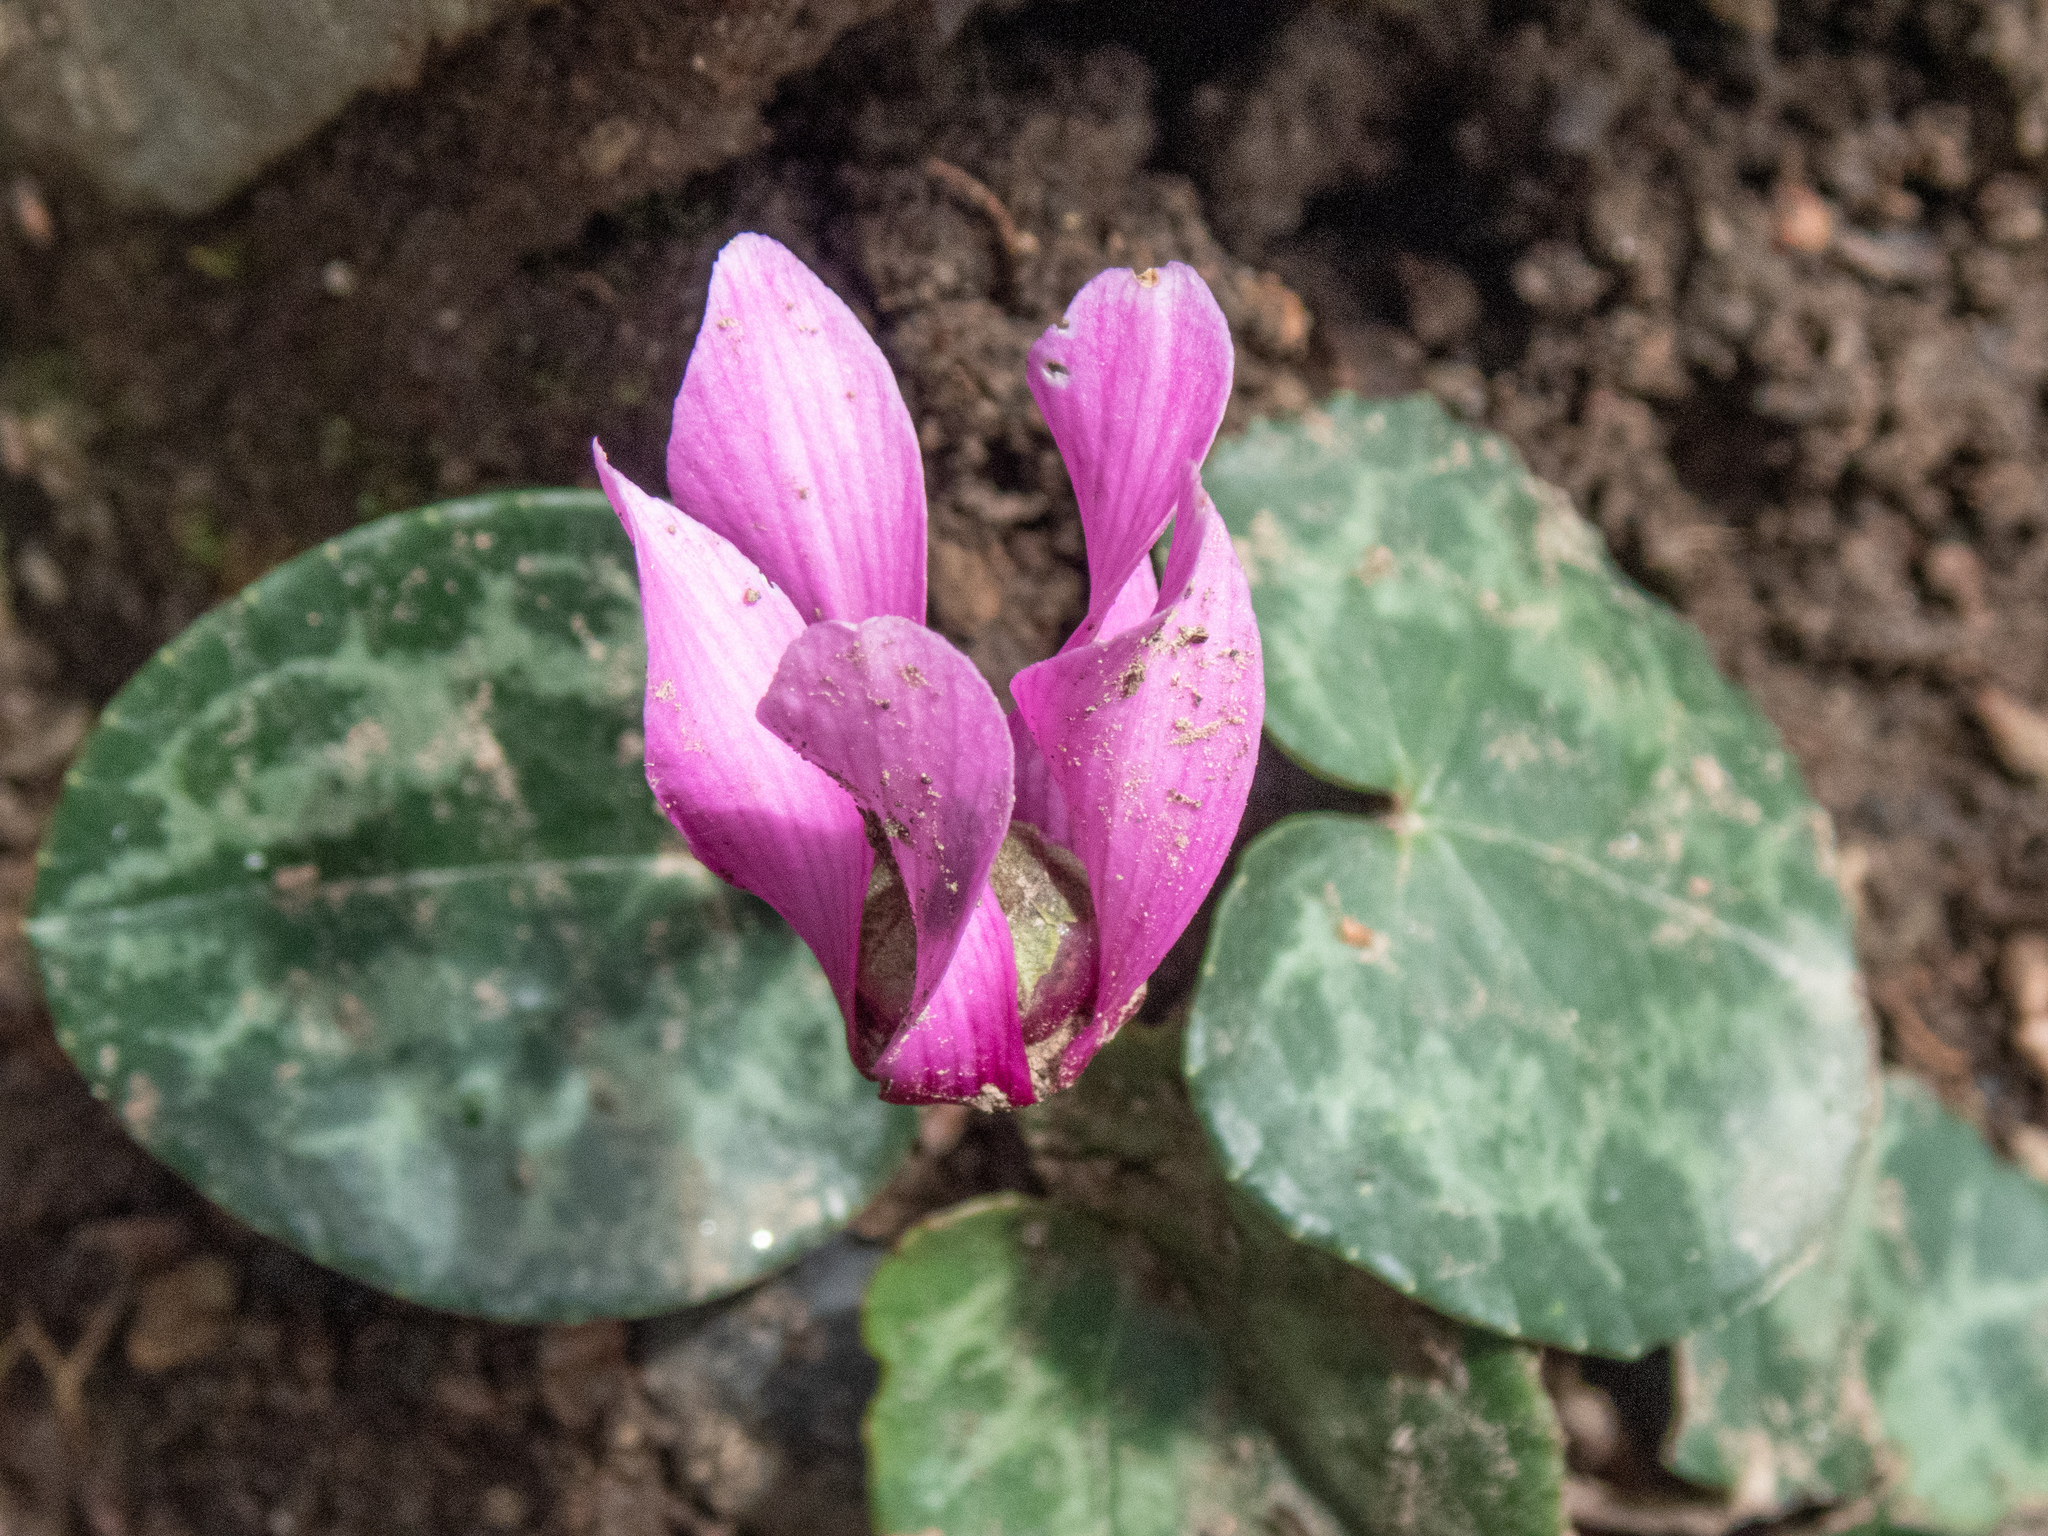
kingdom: Plantae
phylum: Tracheophyta
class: Magnoliopsida
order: Ericales
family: Primulaceae
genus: Cyclamen
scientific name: Cyclamen purpurascens
